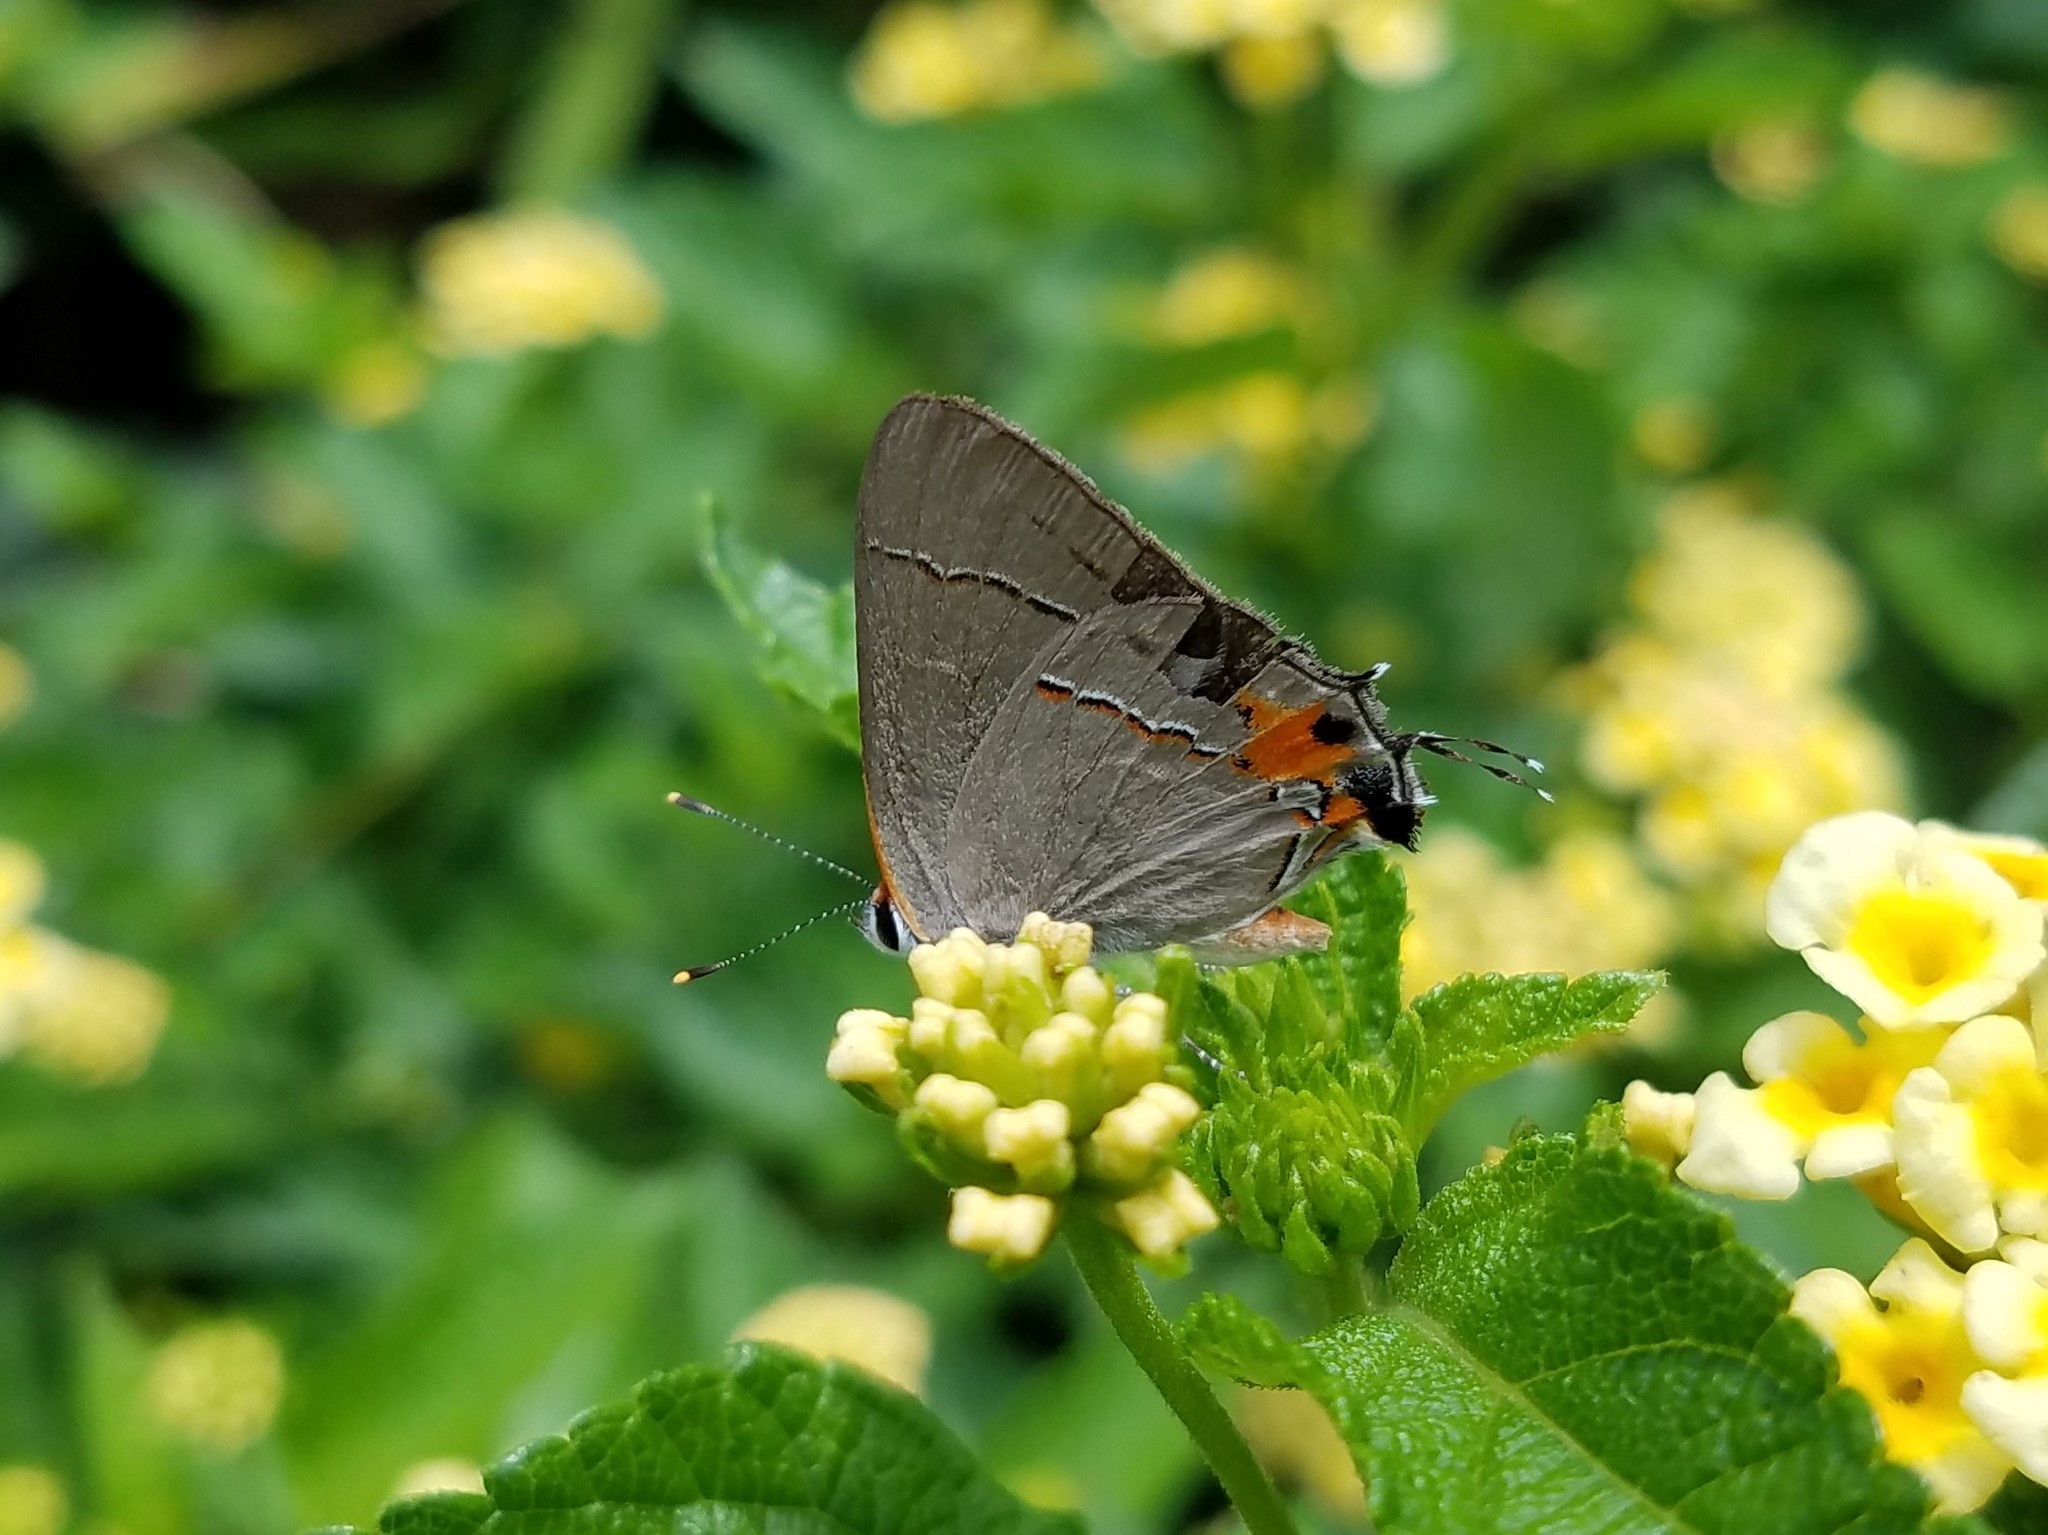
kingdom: Animalia
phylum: Arthropoda
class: Insecta
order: Lepidoptera
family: Lycaenidae
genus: Strymon
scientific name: Strymon melinus
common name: Gray hairstreak
